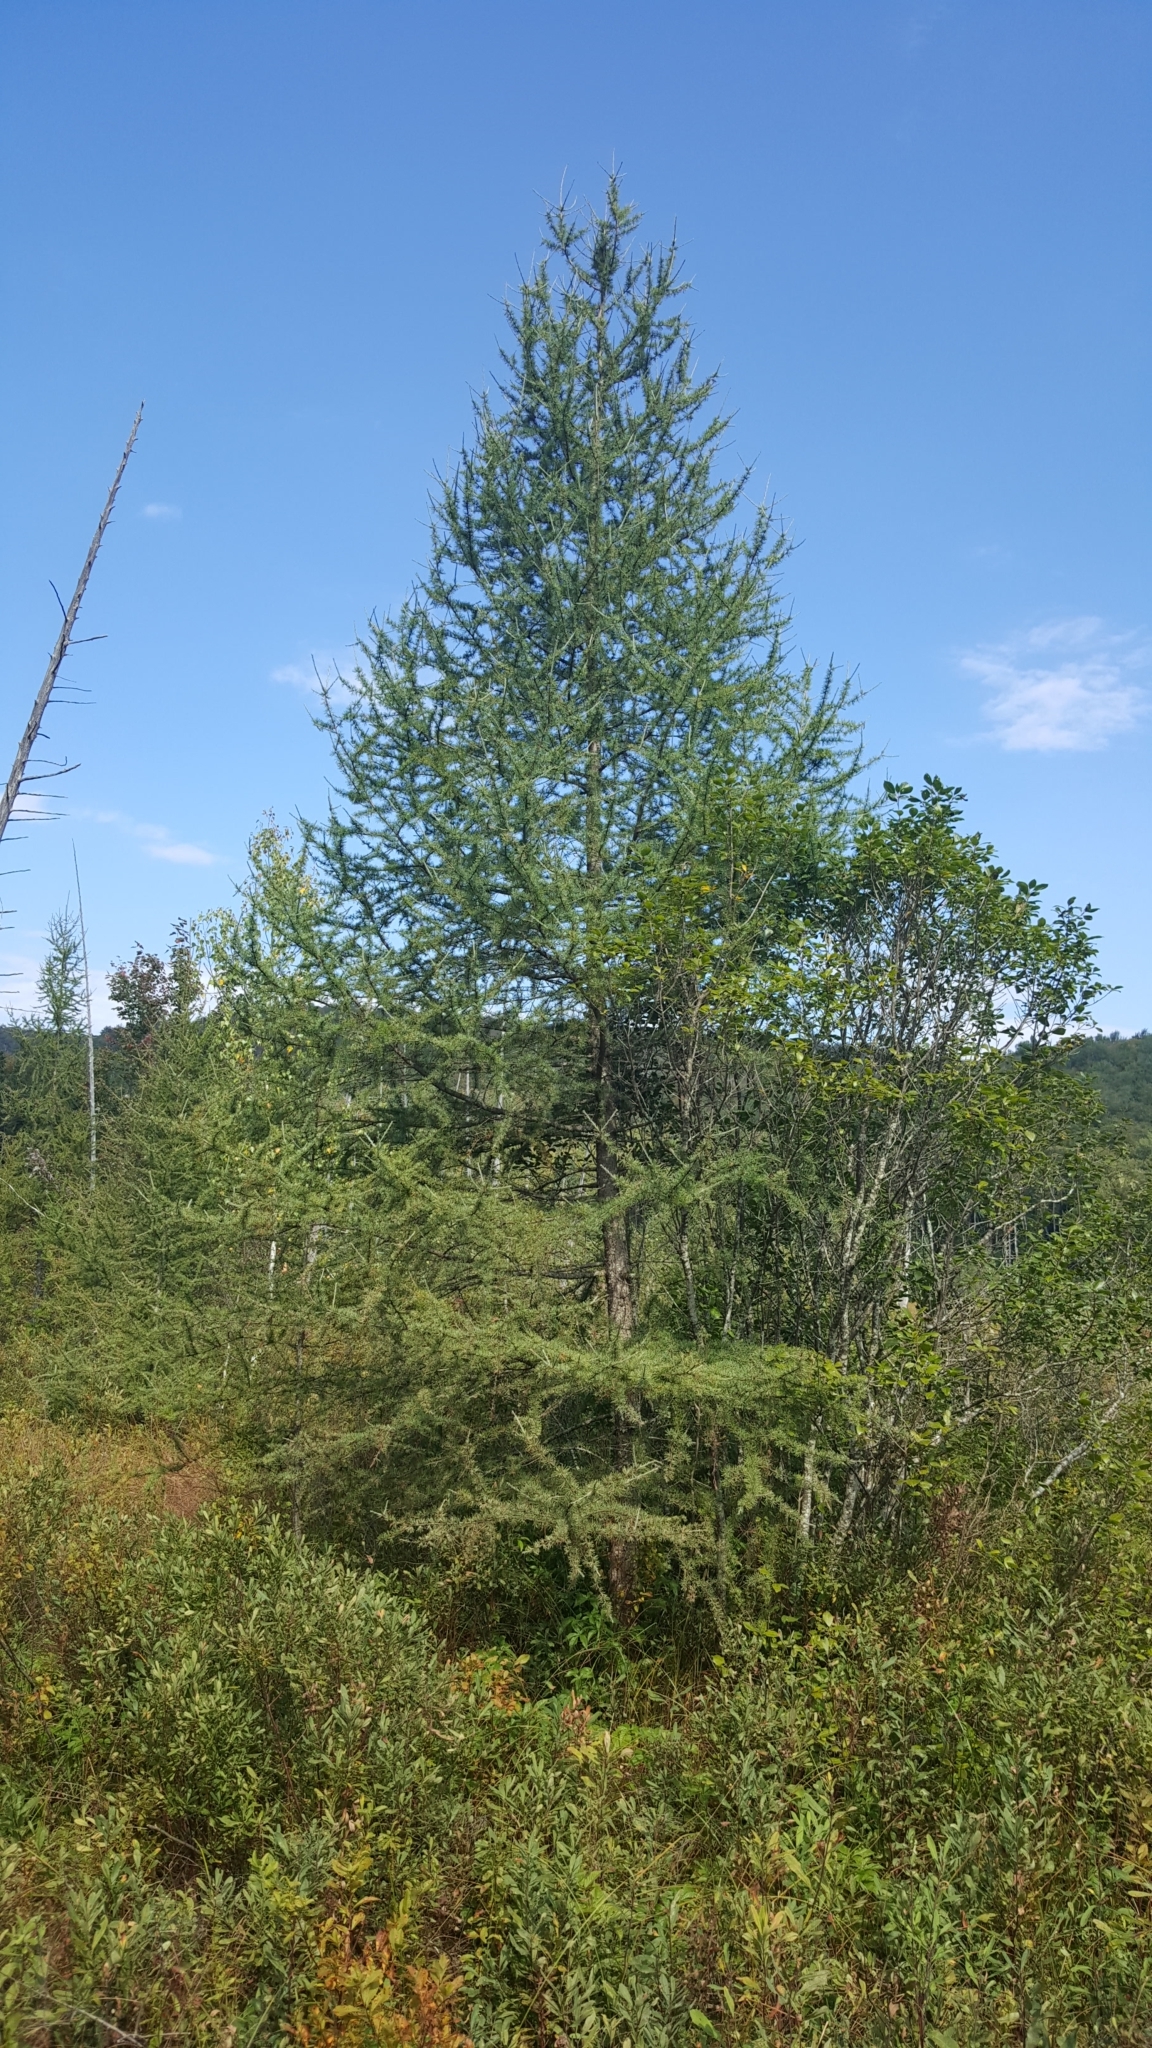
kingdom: Plantae
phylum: Tracheophyta
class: Pinopsida
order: Pinales
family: Pinaceae
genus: Larix
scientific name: Larix laricina
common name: American larch
